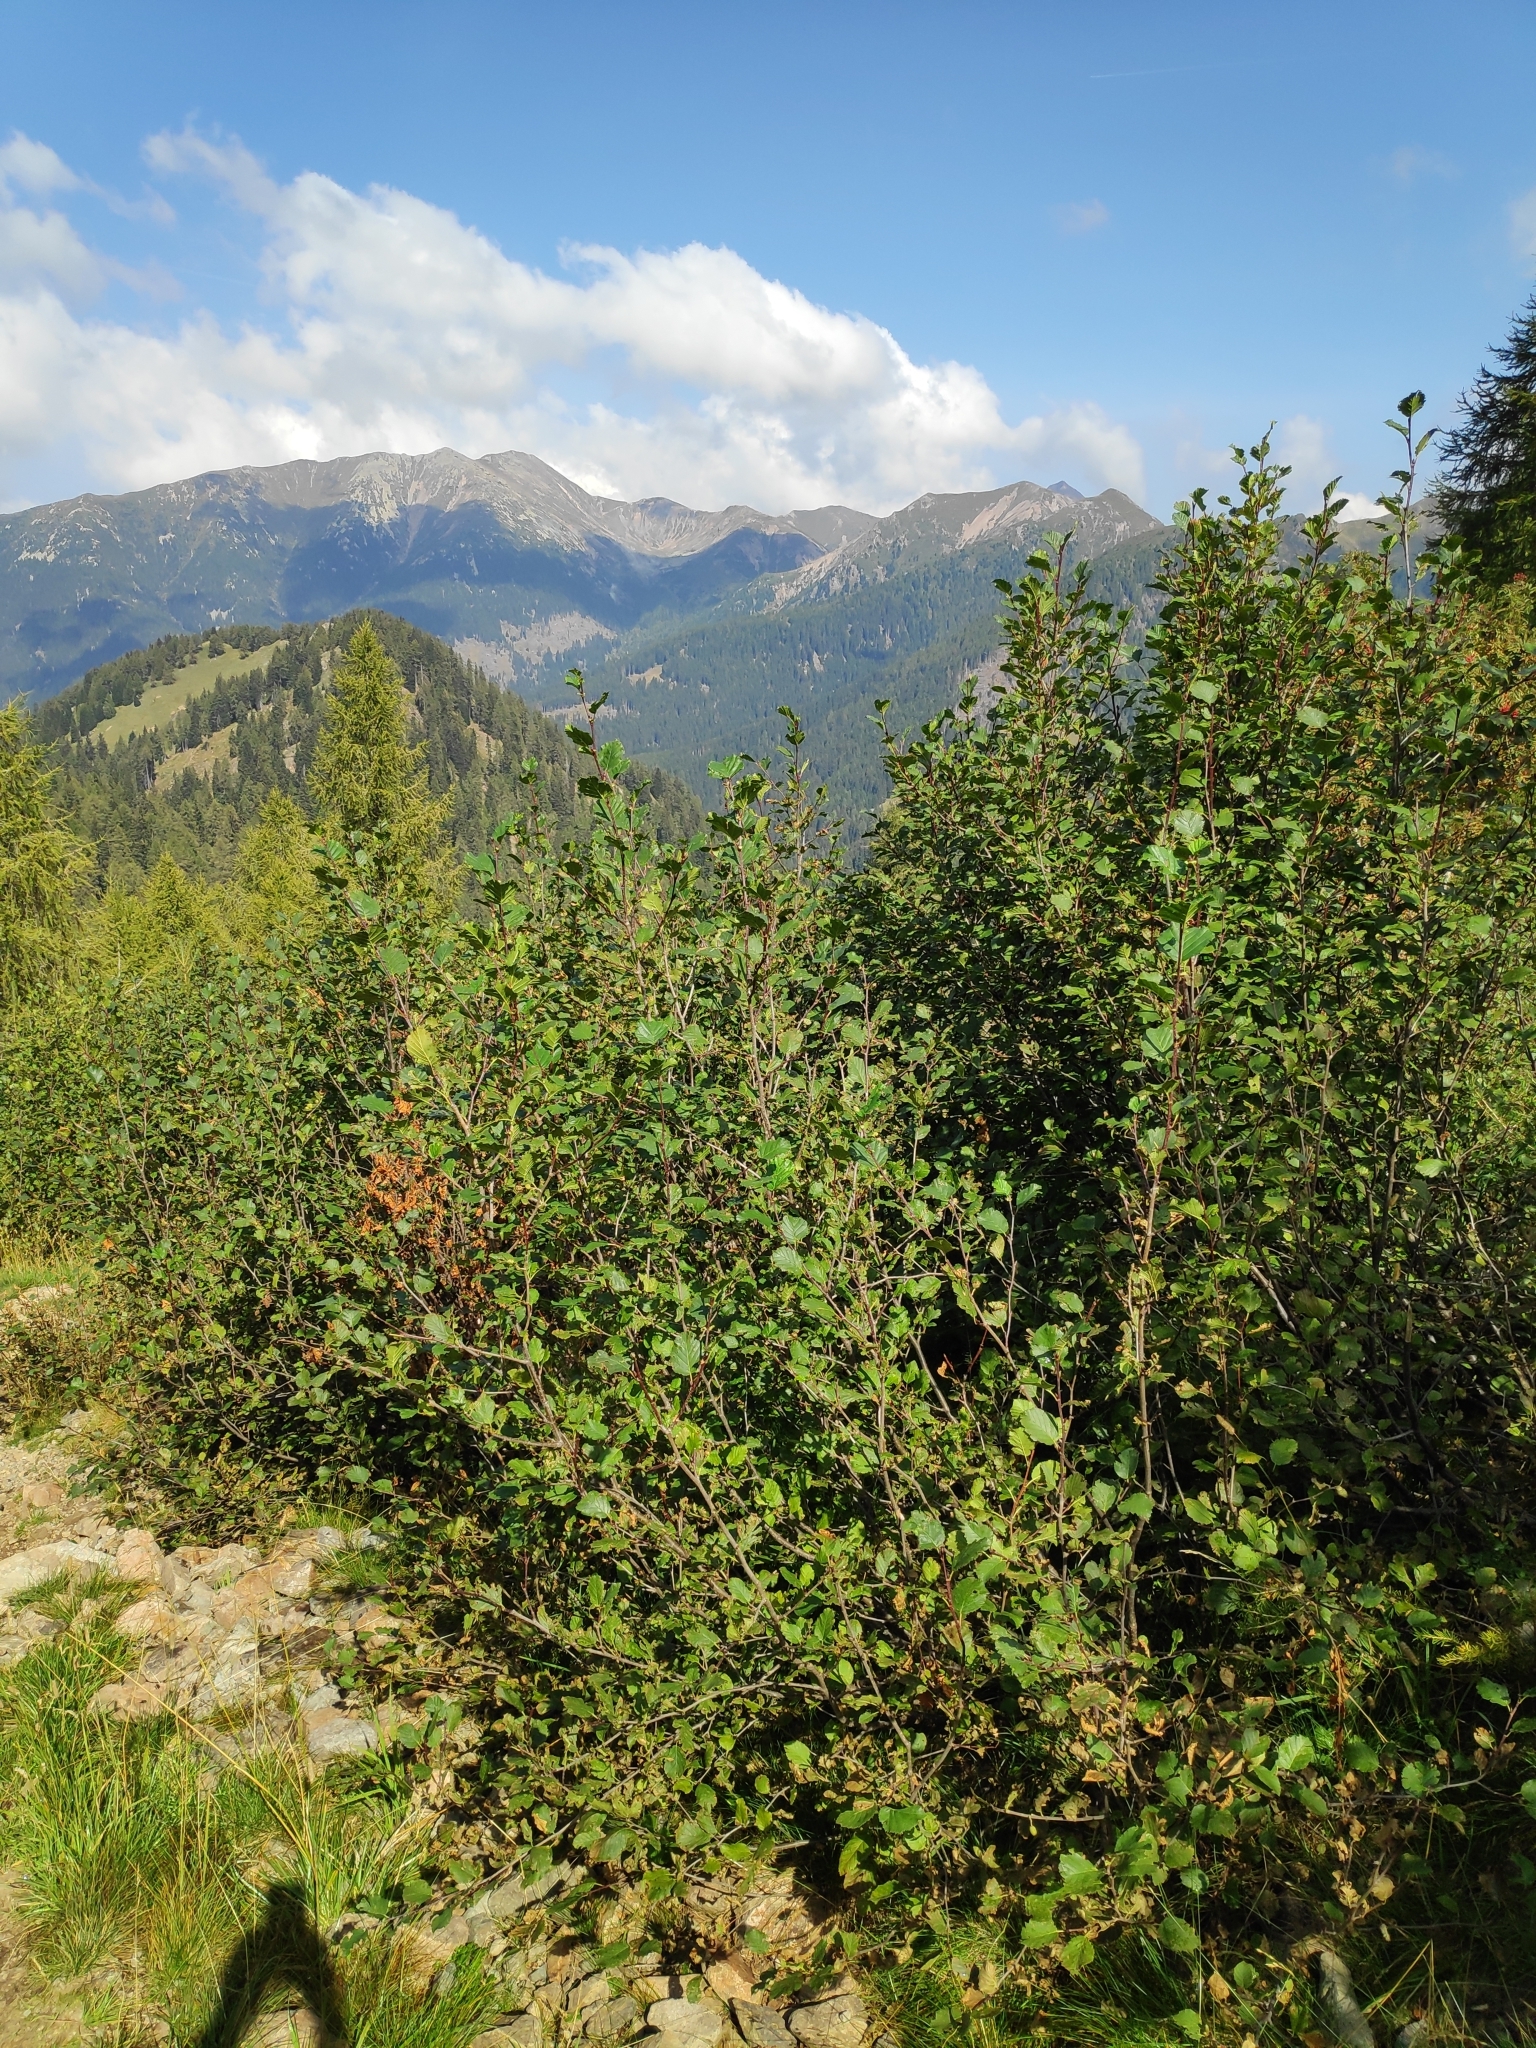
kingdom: Plantae
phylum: Tracheophyta
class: Magnoliopsida
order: Fagales
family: Betulaceae
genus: Alnus
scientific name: Alnus alnobetula
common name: Green alder
